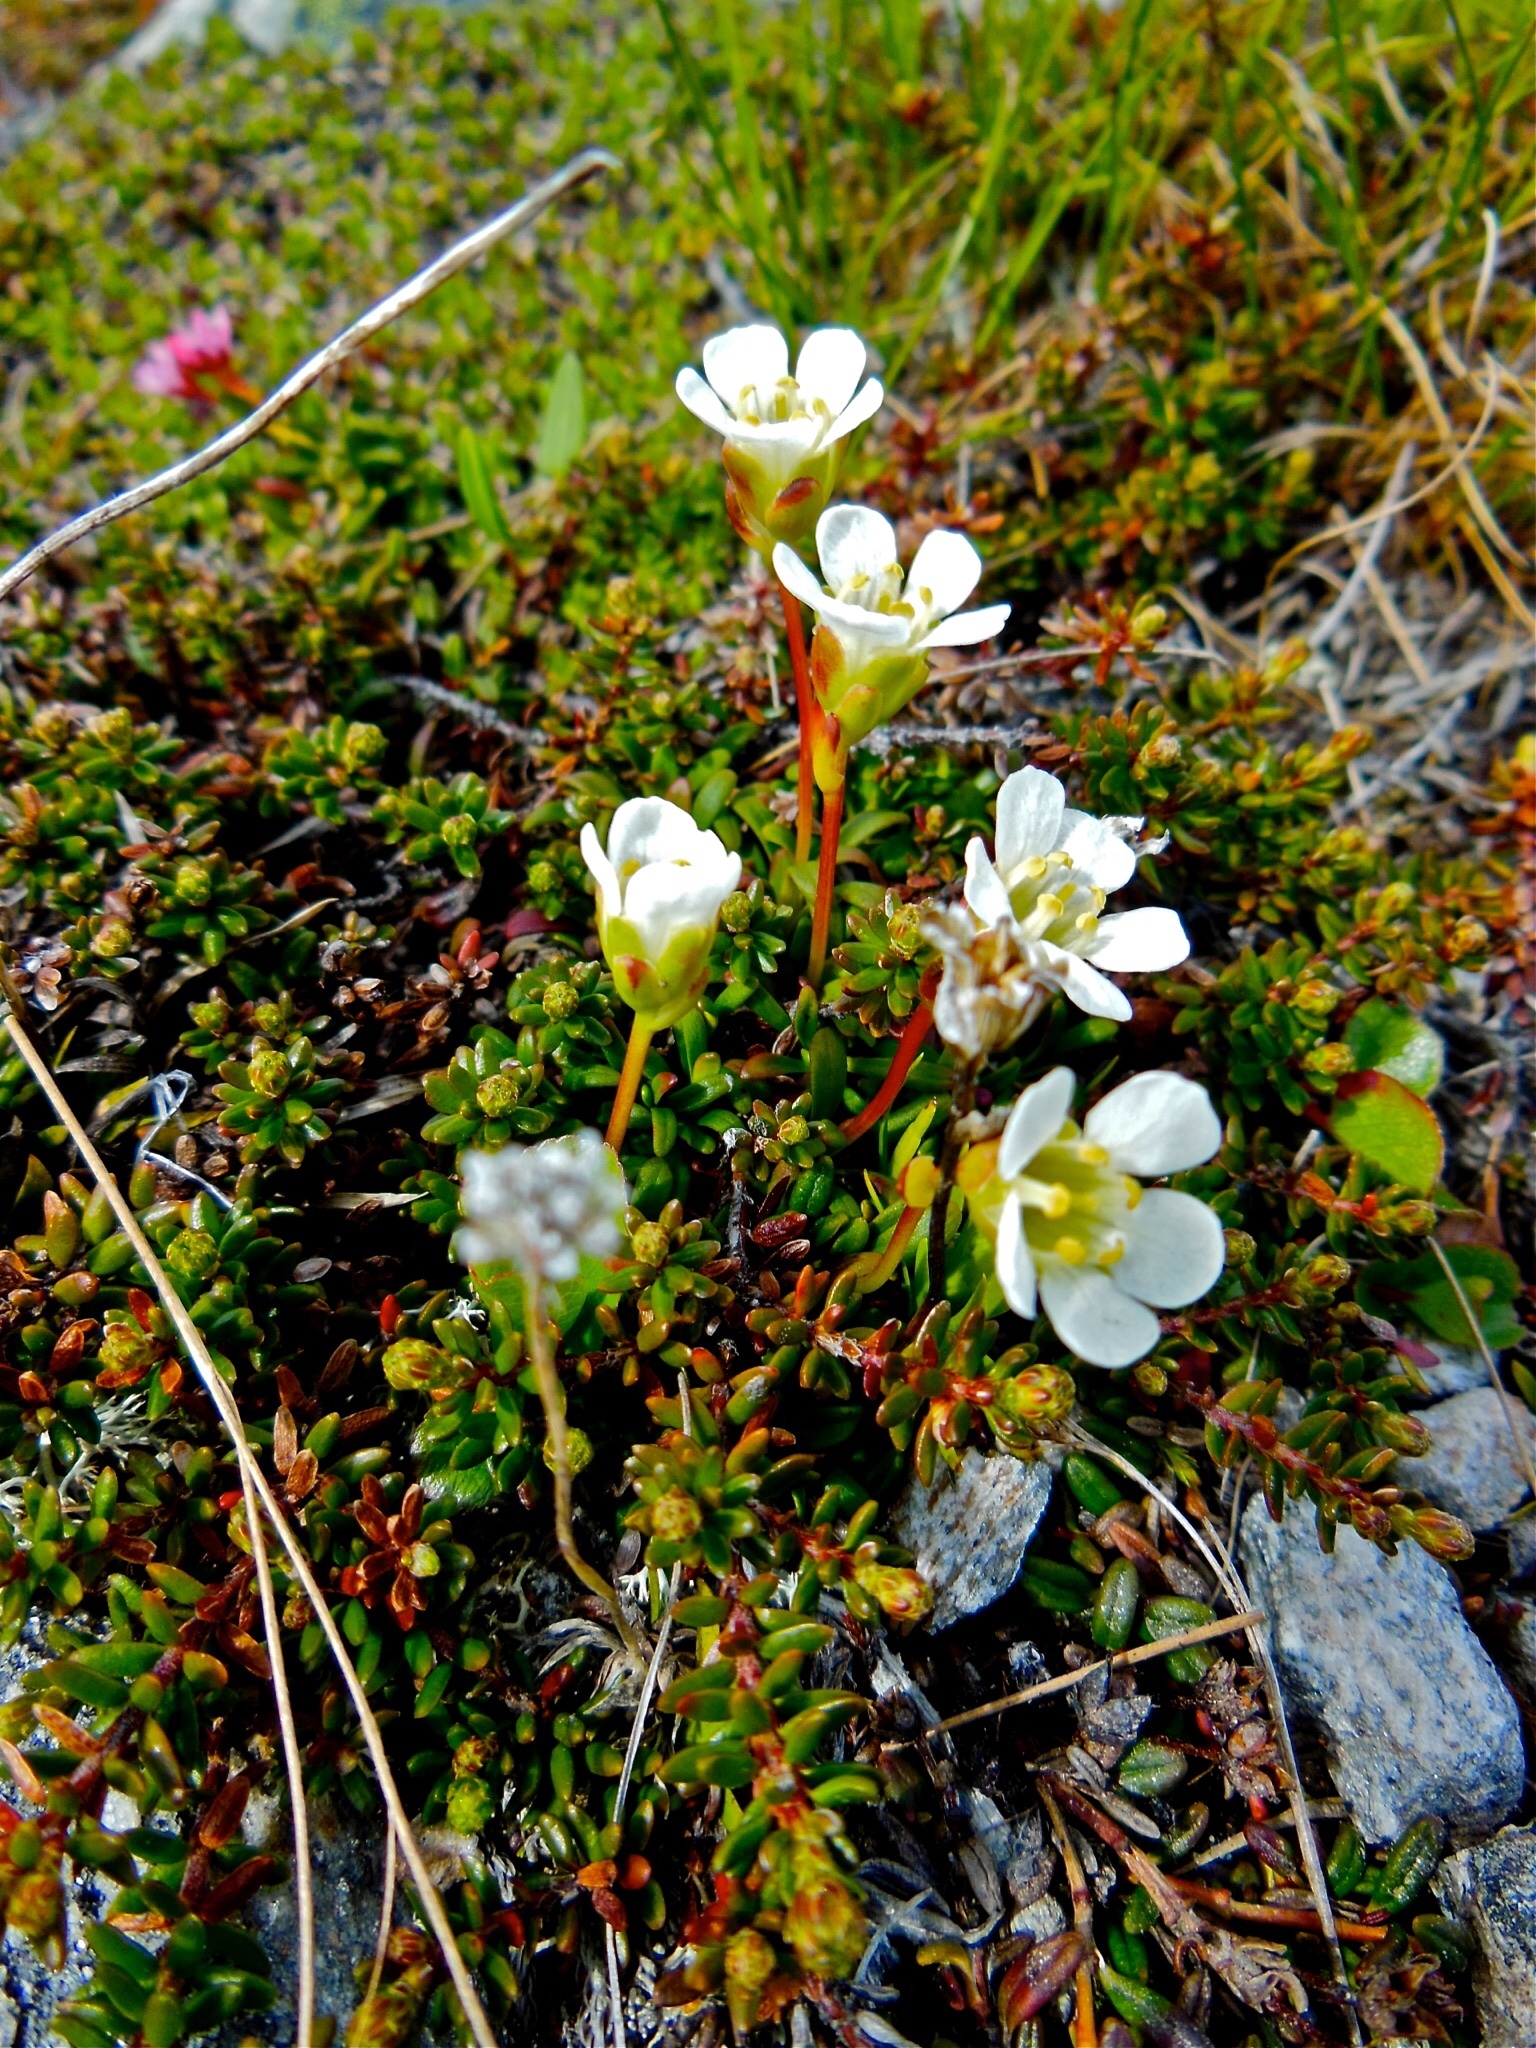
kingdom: Plantae
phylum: Tracheophyta
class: Magnoliopsida
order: Ericales
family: Diapensiaceae
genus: Diapensia
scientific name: Diapensia lapponica
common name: Diapensia
